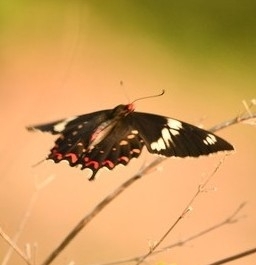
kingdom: Animalia
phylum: Arthropoda
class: Insecta
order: Lepidoptera
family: Papilionidae
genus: Pachliopta
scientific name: Pachliopta hector
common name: Crimson rose
